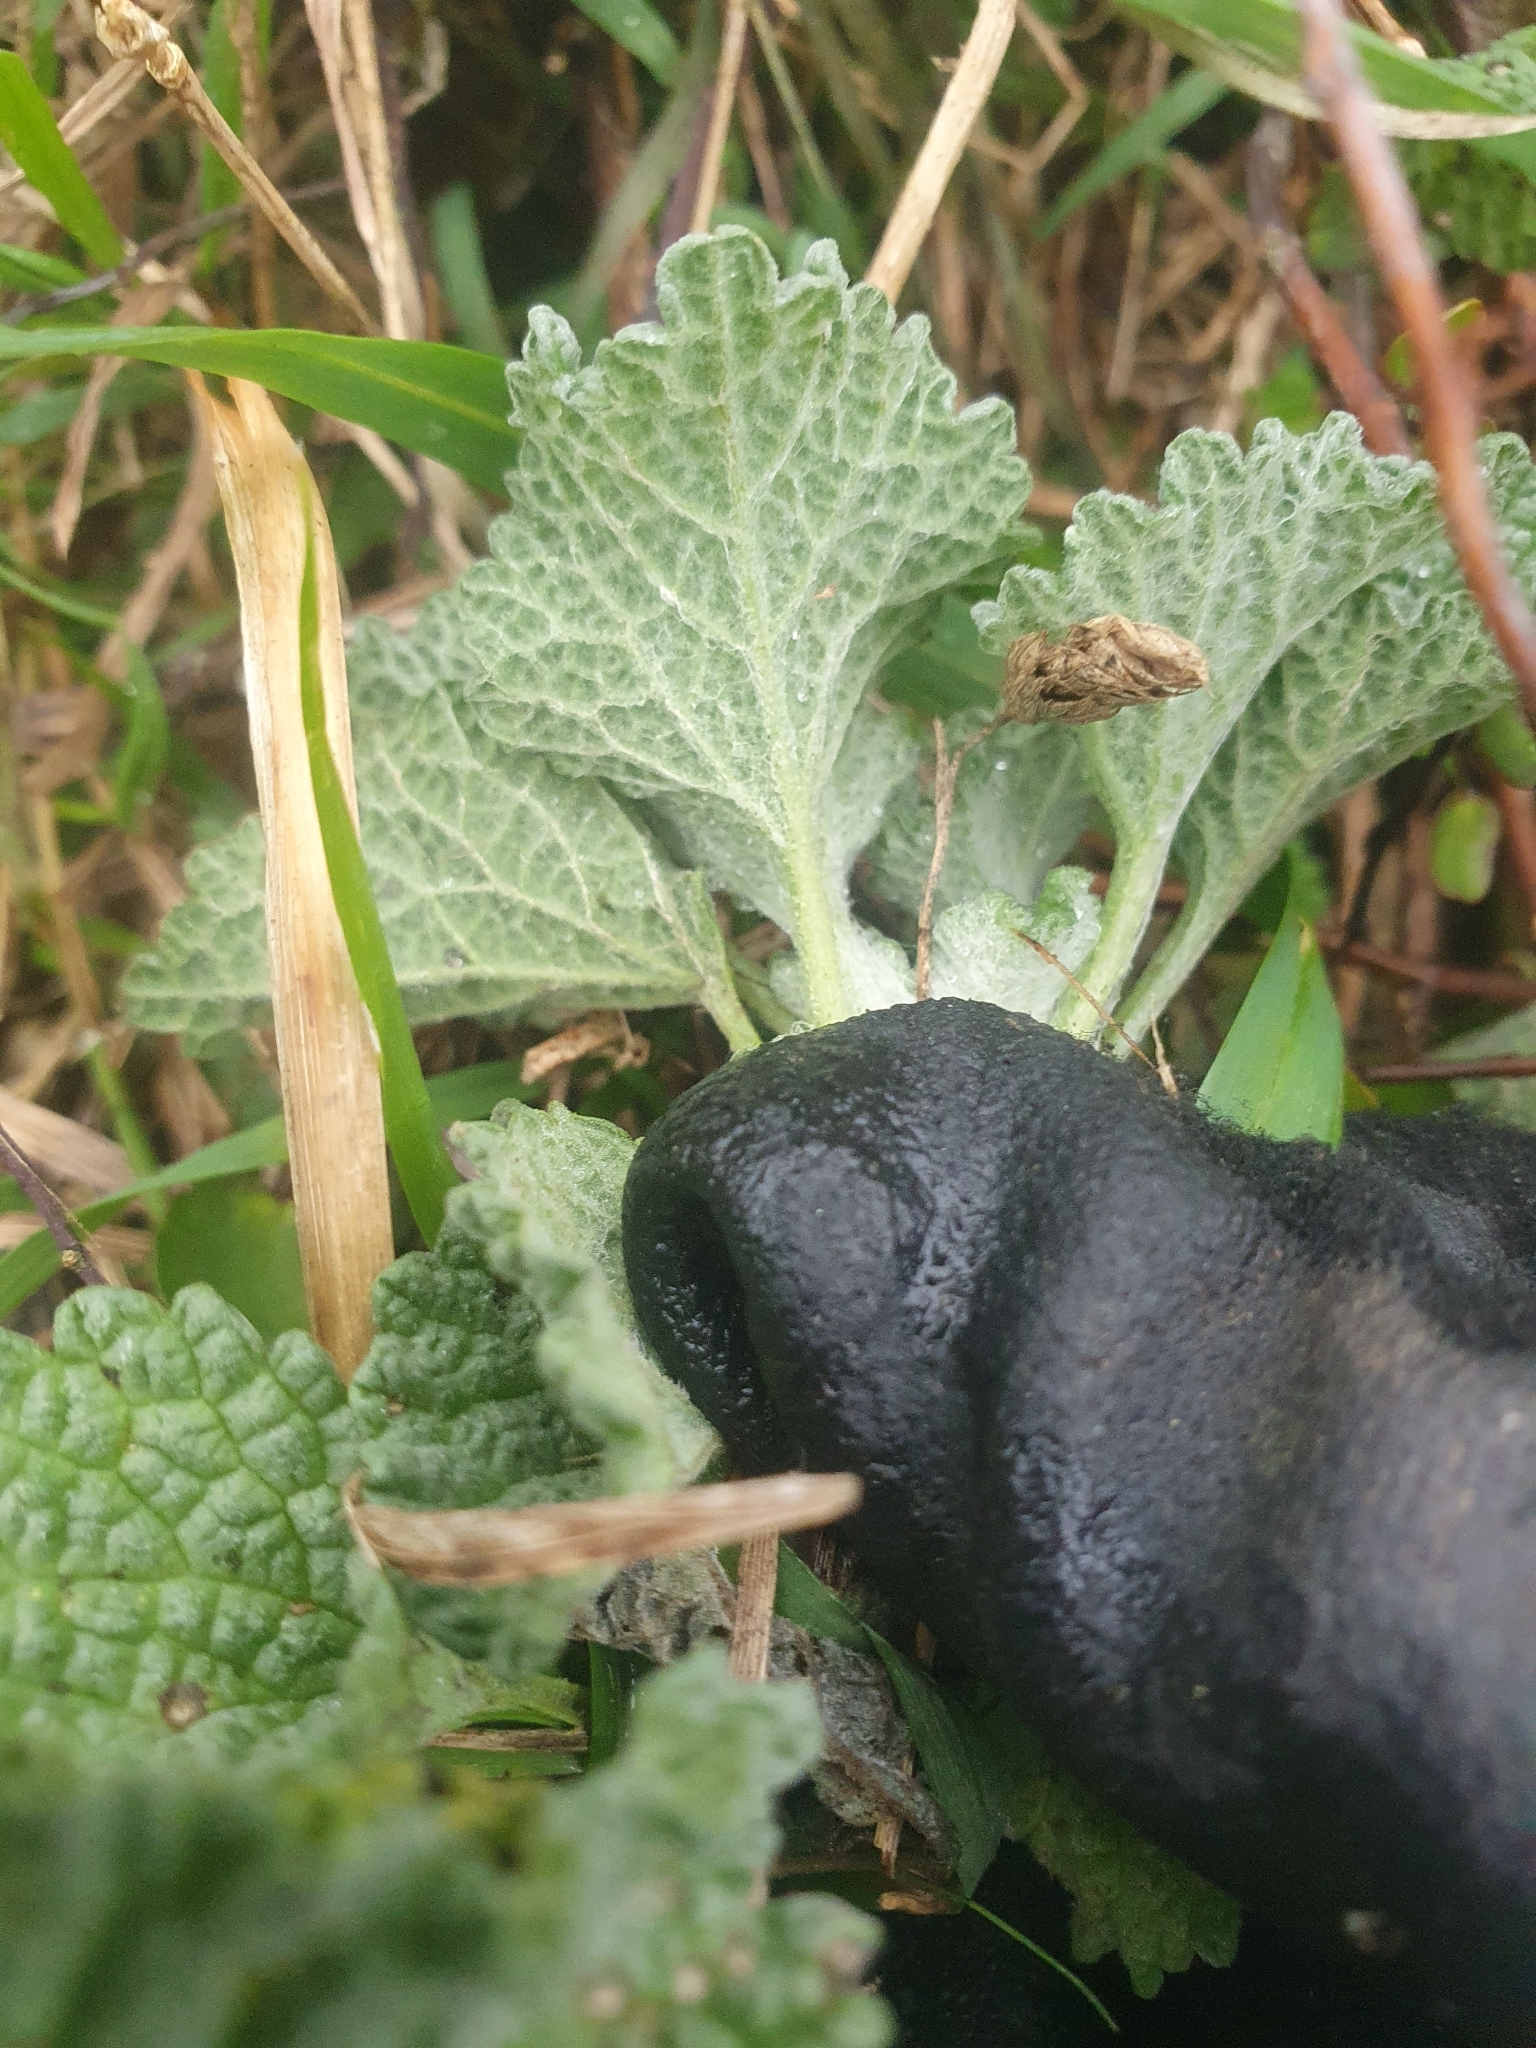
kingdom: Plantae
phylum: Tracheophyta
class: Magnoliopsida
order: Lamiales
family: Lamiaceae
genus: Marrubium
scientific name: Marrubium vulgare
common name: Horehound
